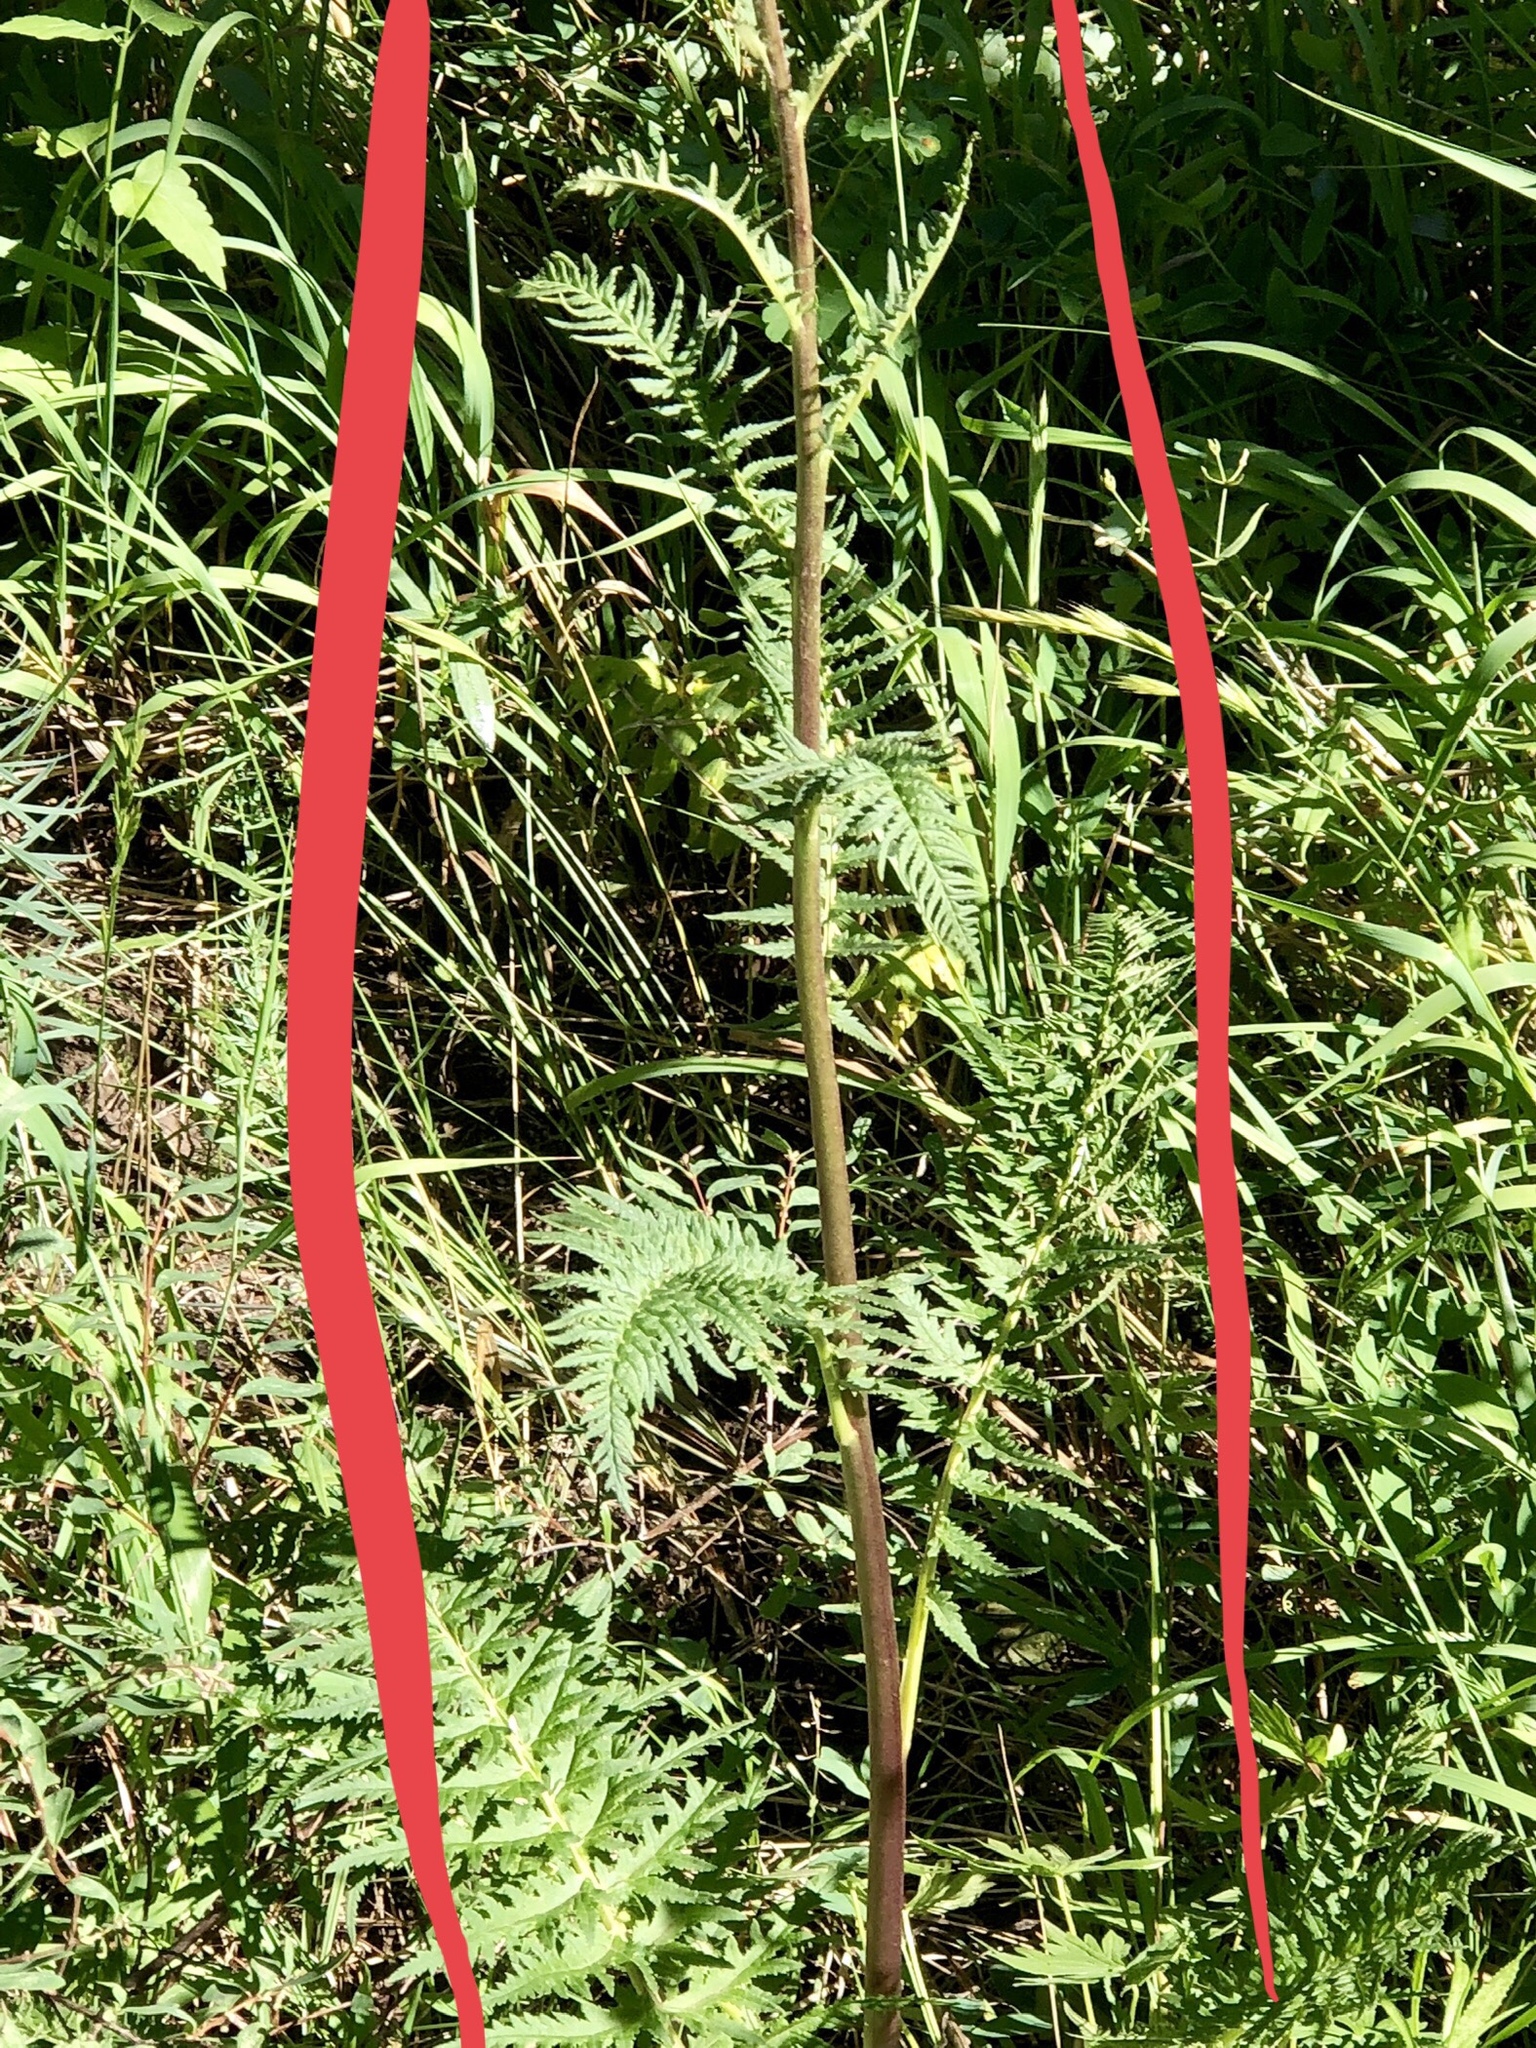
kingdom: Plantae
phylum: Tracheophyta
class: Magnoliopsida
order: Lamiales
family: Orobanchaceae
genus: Pedicularis
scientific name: Pedicularis procera
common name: Gray's lousewort
